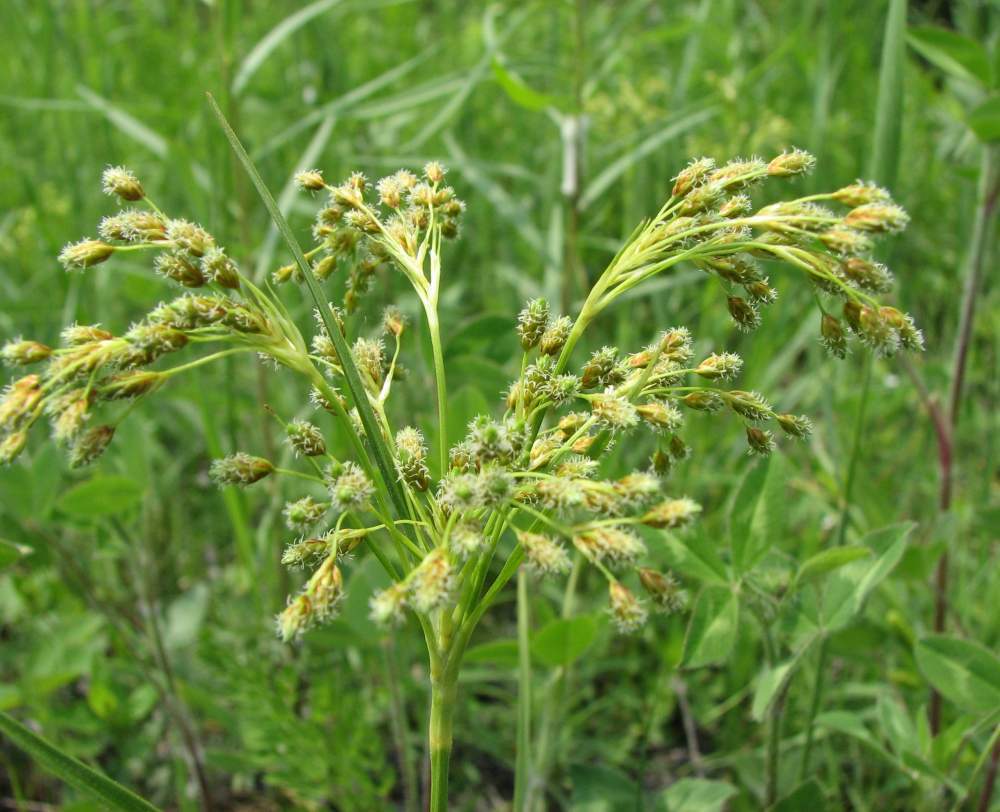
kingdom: Plantae
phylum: Tracheophyta
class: Liliopsida
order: Poales
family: Cyperaceae
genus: Scirpus
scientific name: Scirpus pendulus
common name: Nodding bulrush
